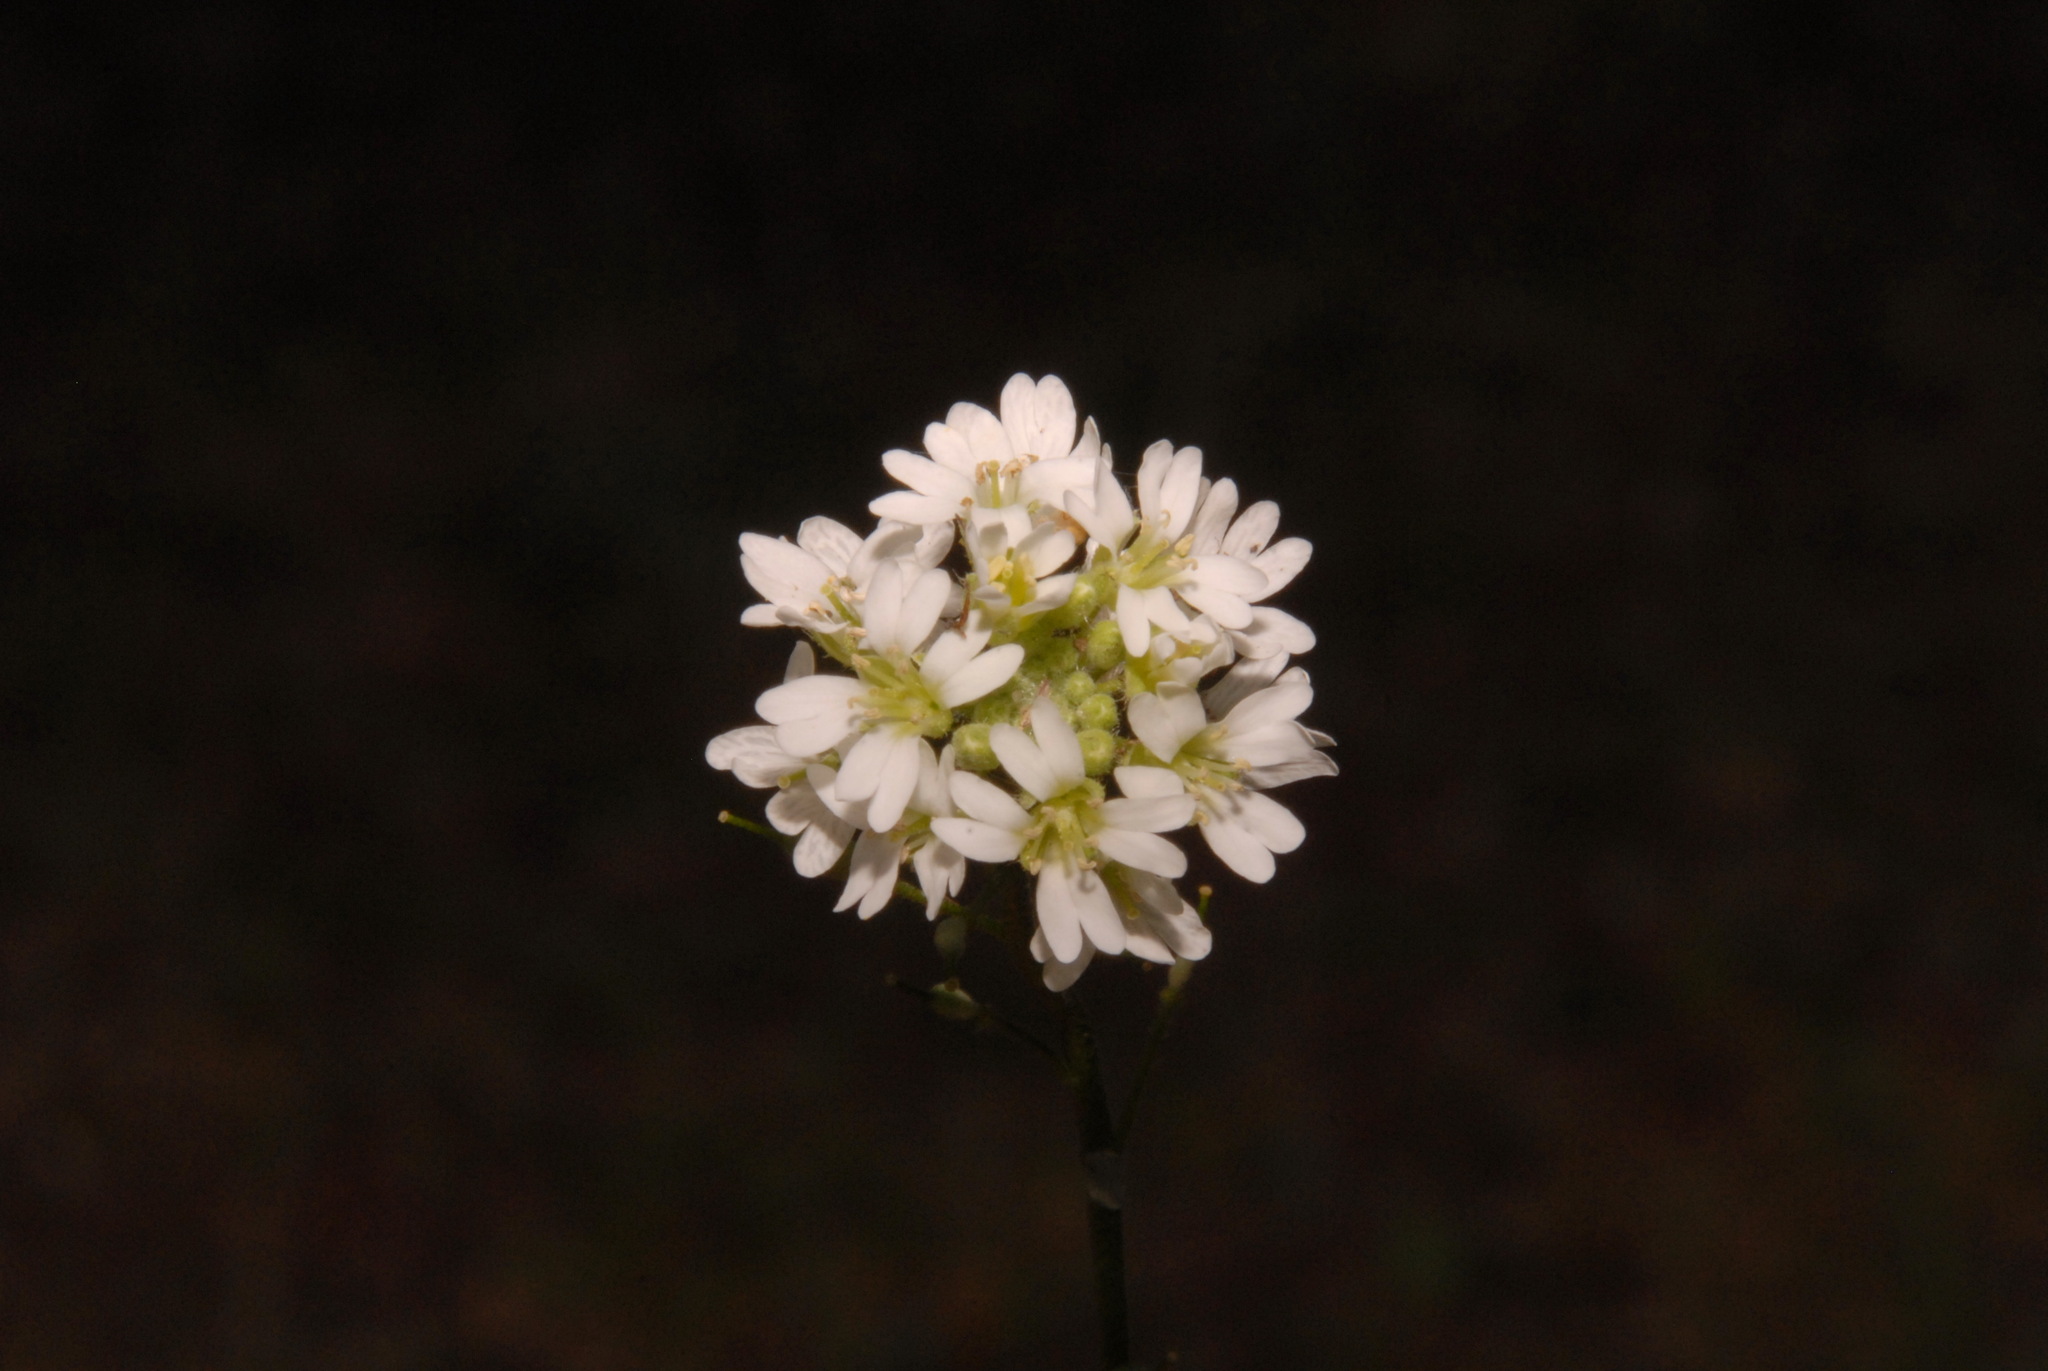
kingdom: Plantae
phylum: Tracheophyta
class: Magnoliopsida
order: Brassicales
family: Brassicaceae
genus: Berteroa
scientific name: Berteroa incana
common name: Hoary alison
